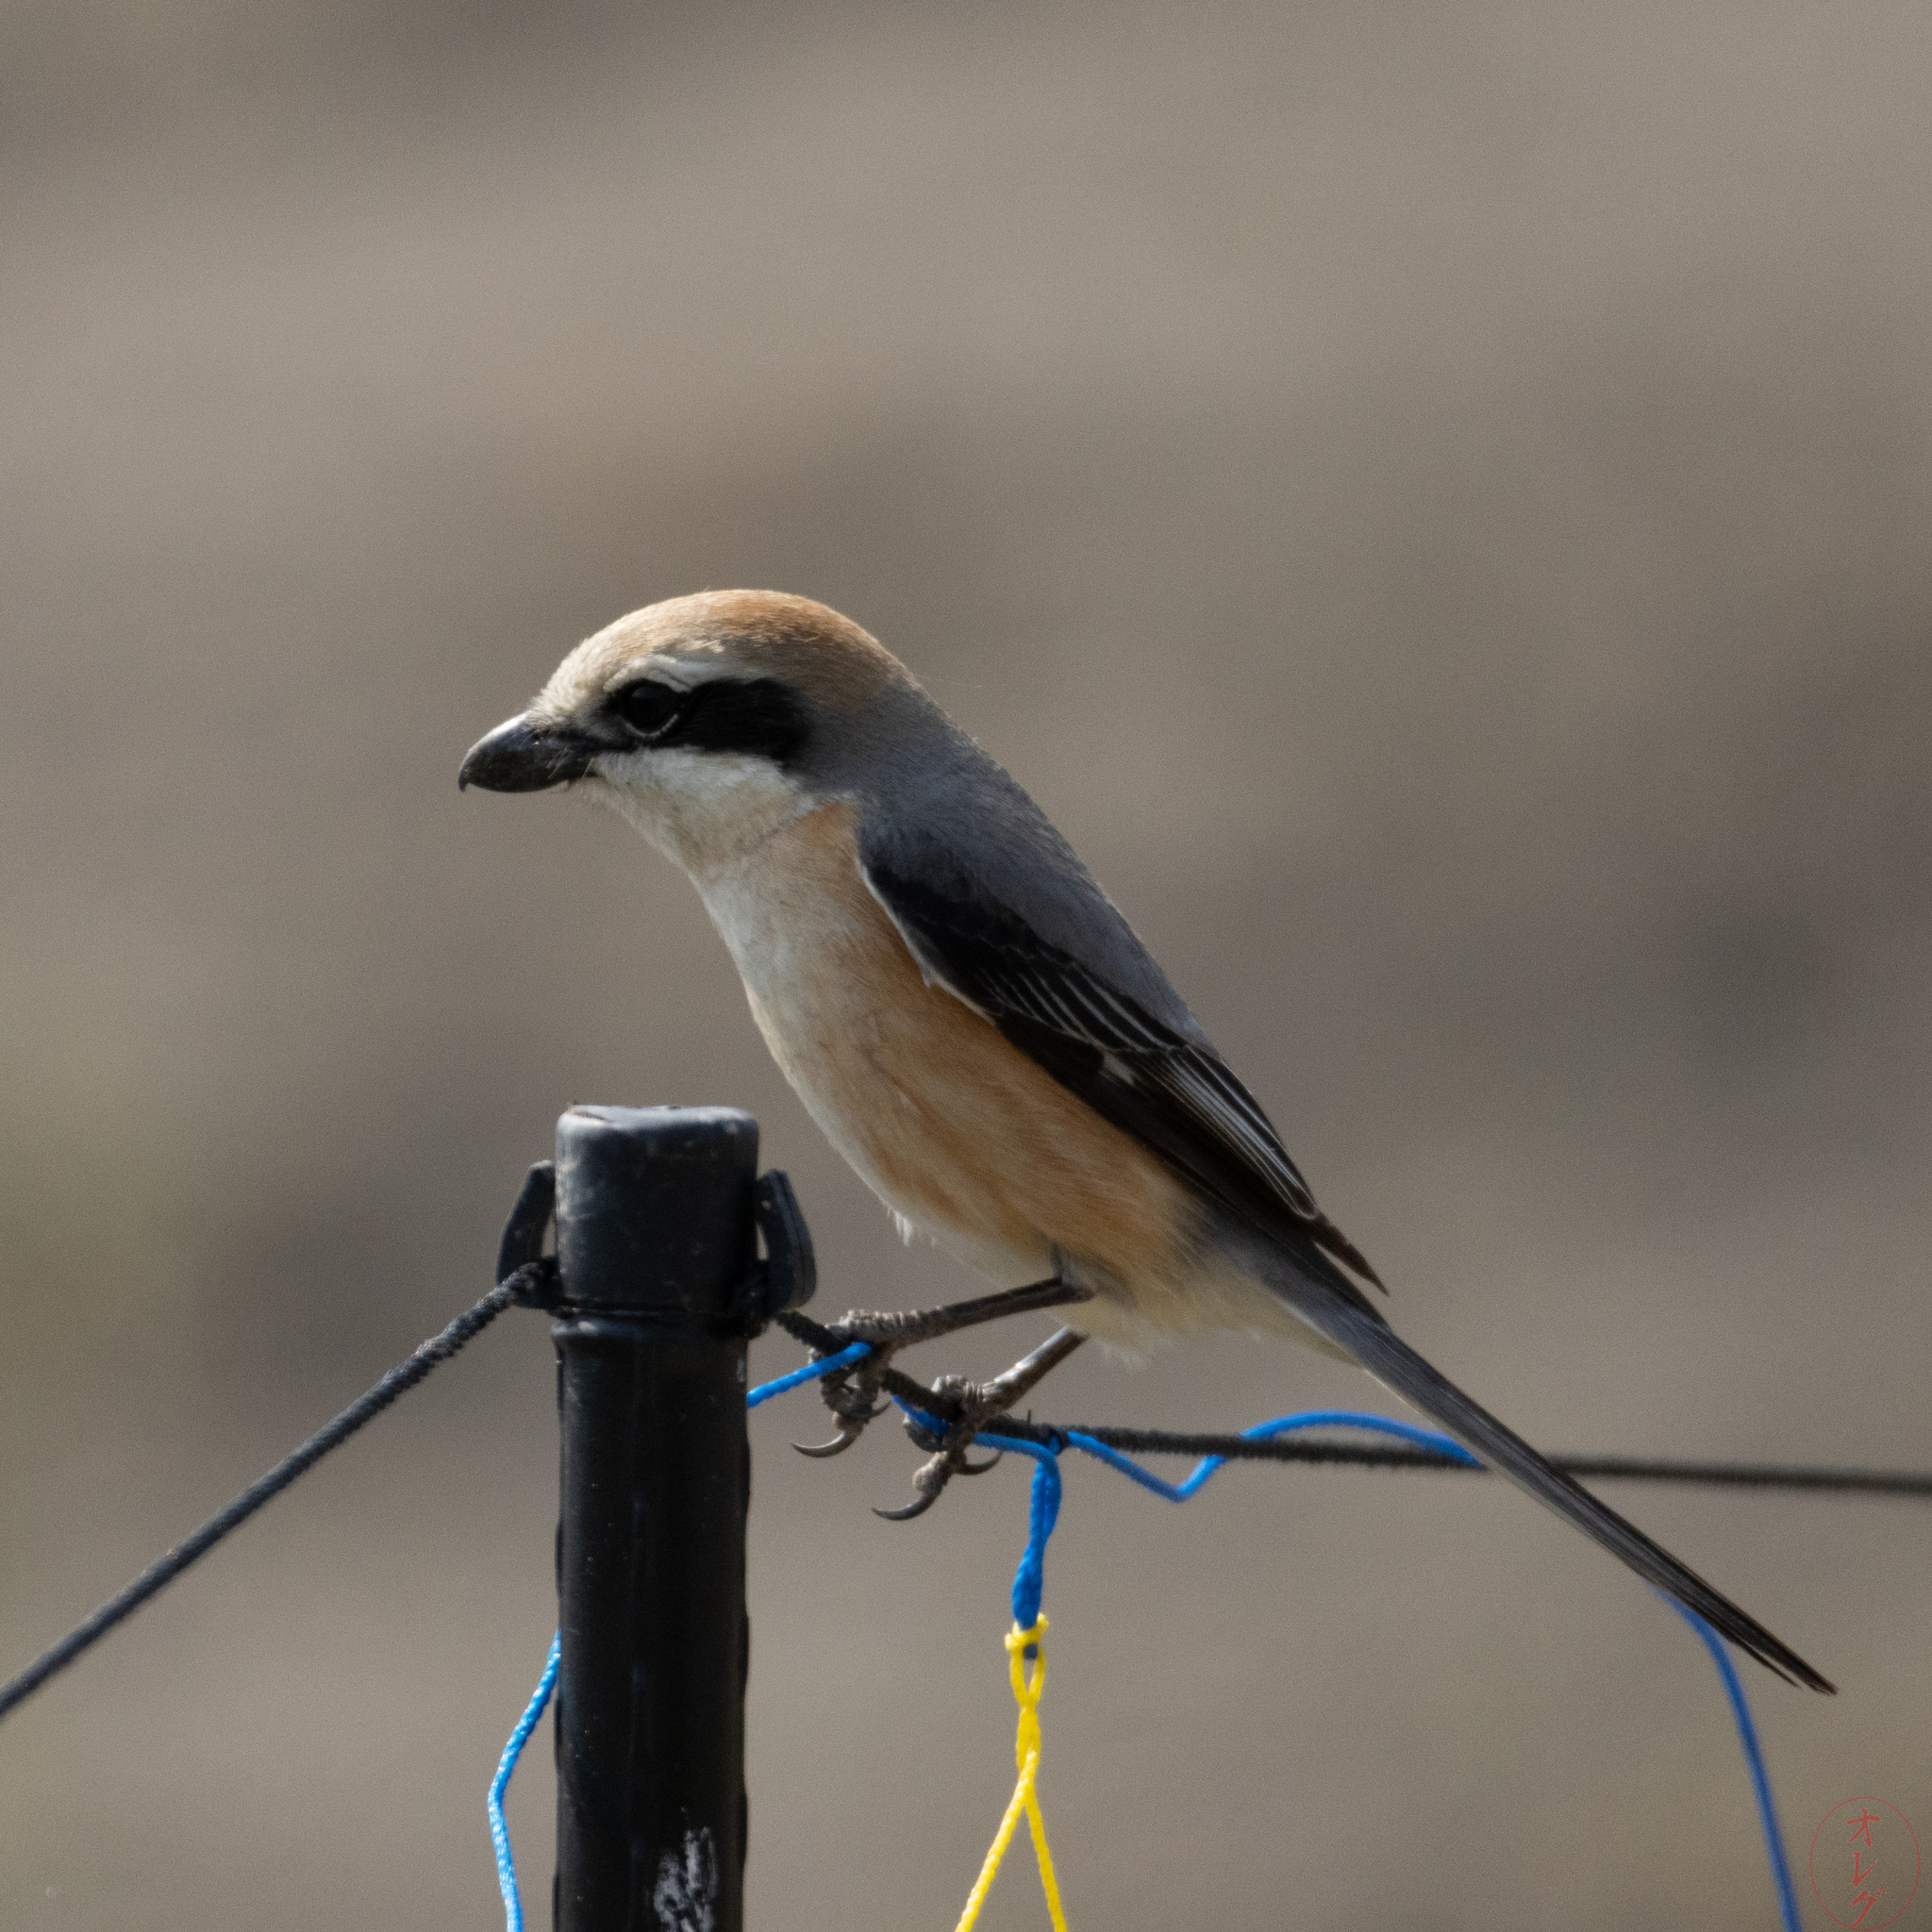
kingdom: Animalia
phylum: Chordata
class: Aves
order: Passeriformes
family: Laniidae
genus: Lanius
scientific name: Lanius bucephalus
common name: Bull-headed shrike
